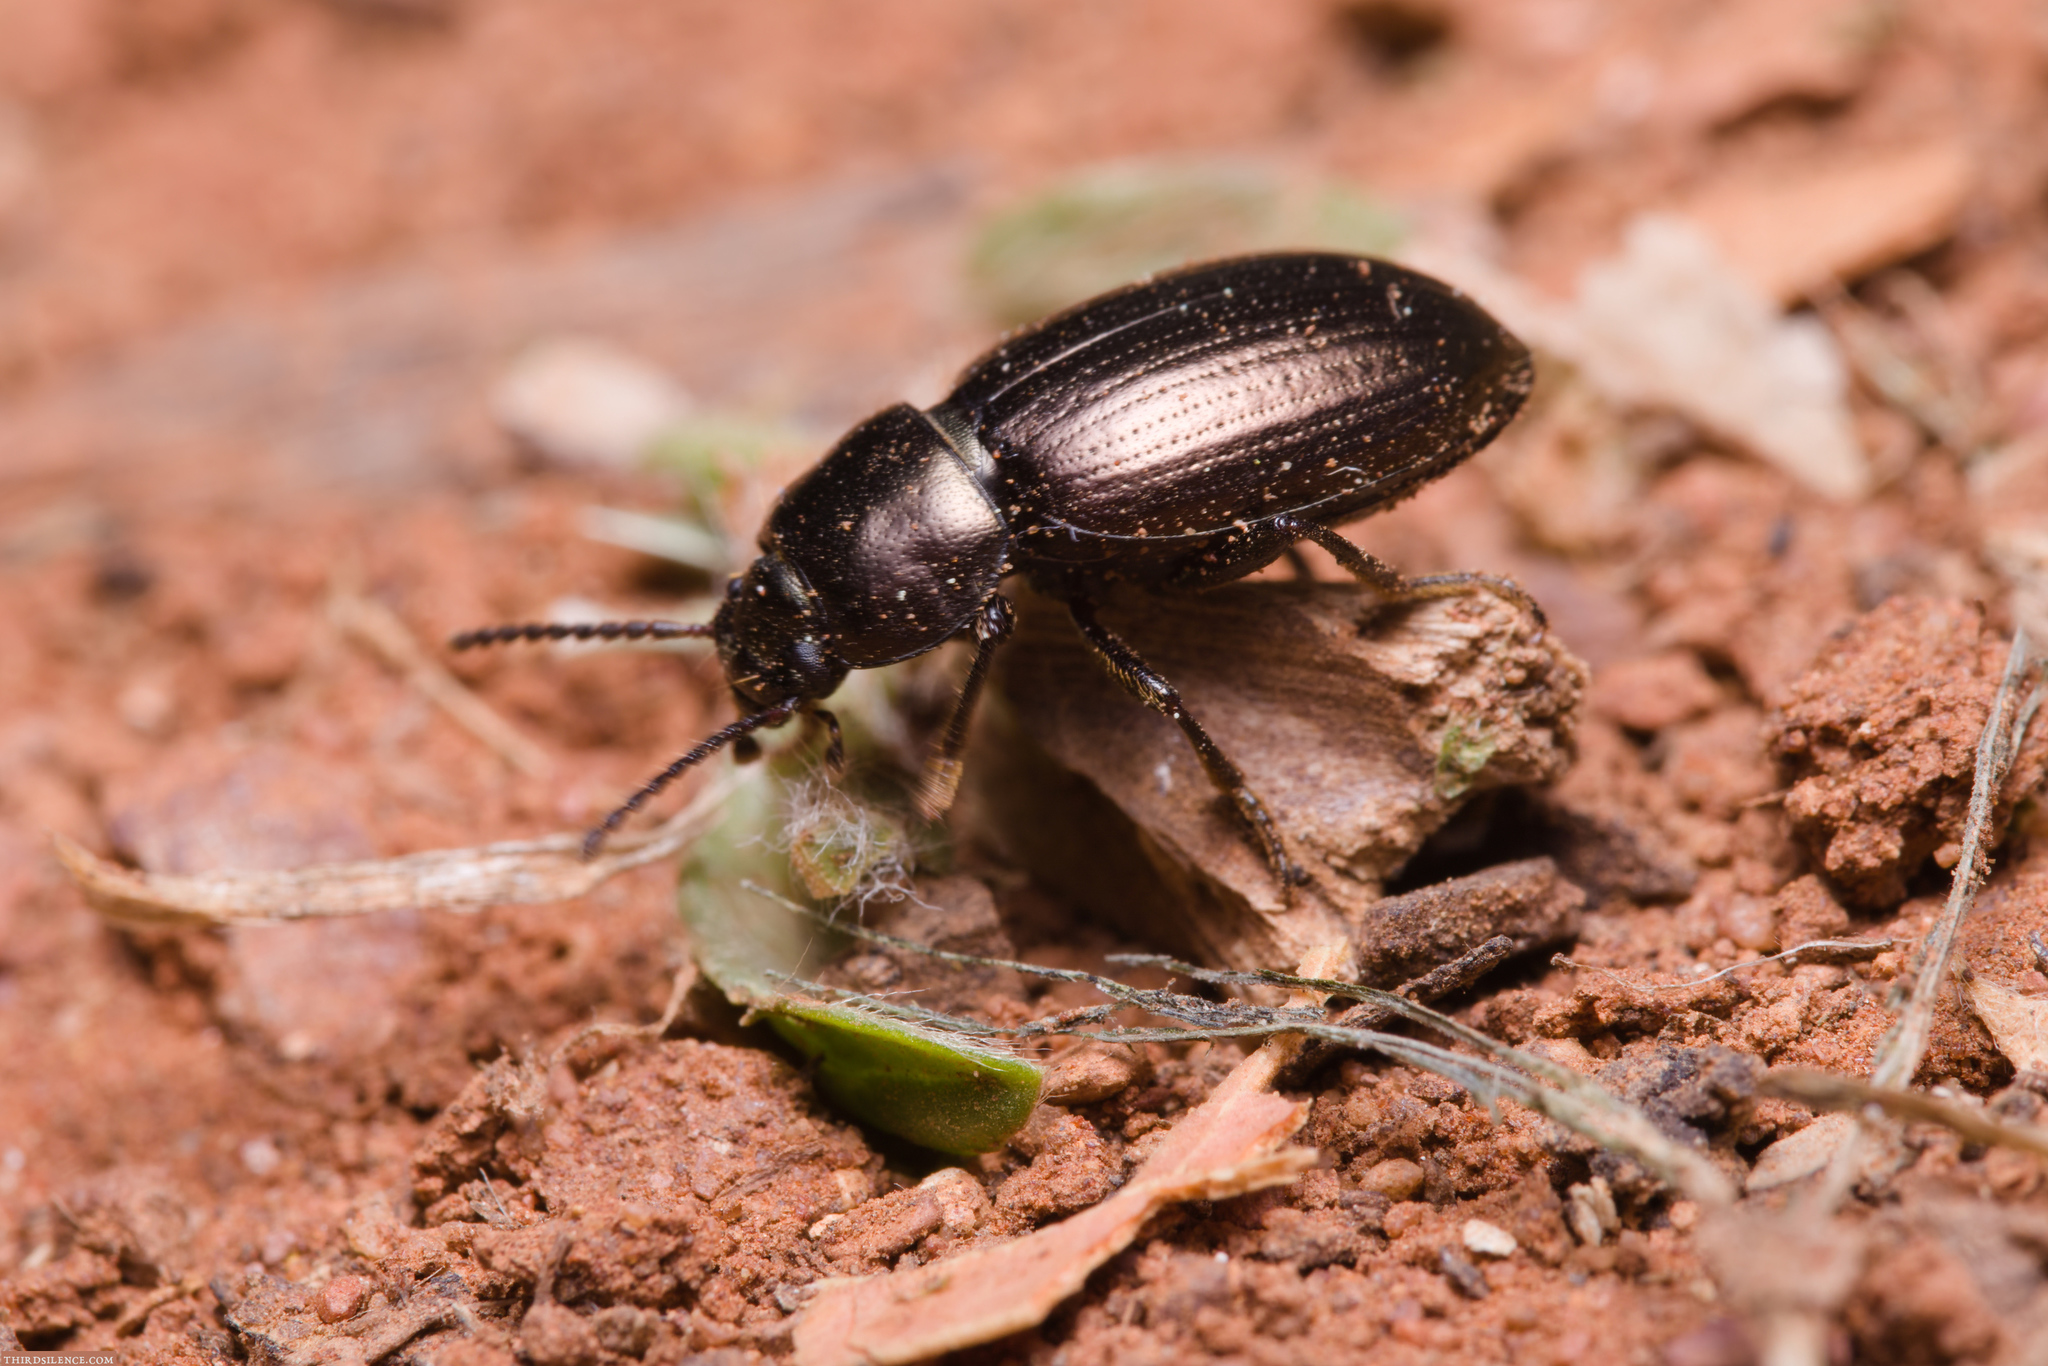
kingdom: Animalia
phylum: Arthropoda
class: Insecta
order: Coleoptera
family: Tenebrionidae
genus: Adelium
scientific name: Adelium
